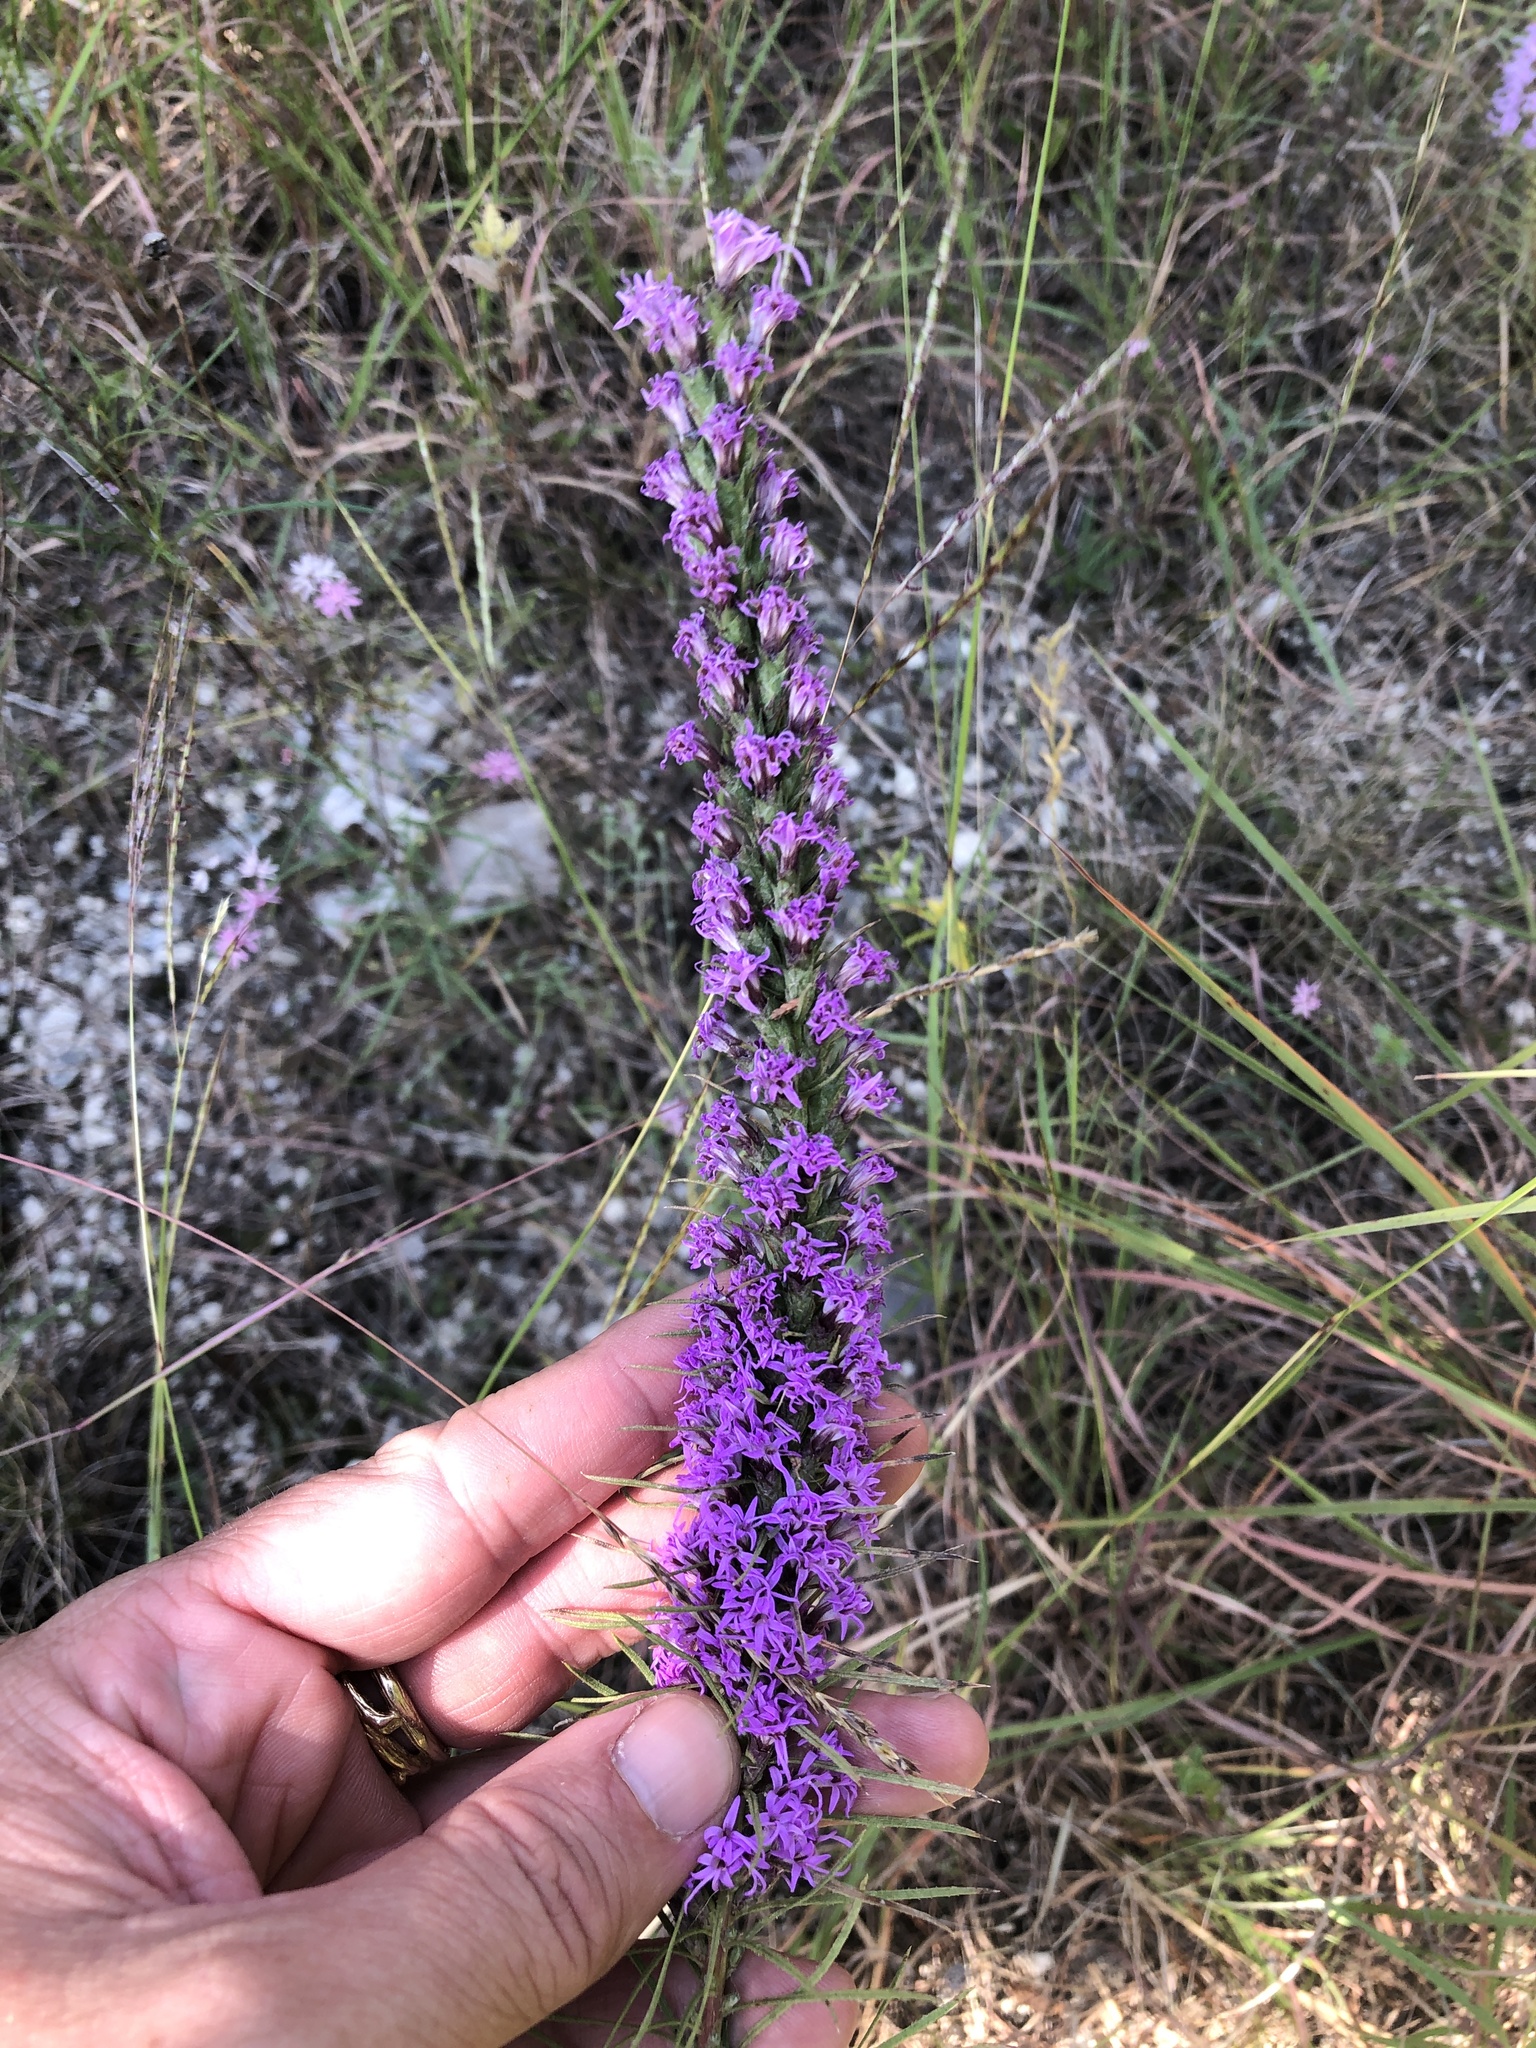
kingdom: Plantae
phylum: Tracheophyta
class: Magnoliopsida
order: Asterales
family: Asteraceae
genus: Liatris
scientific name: Liatris punctata
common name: Dotted gayfeather
